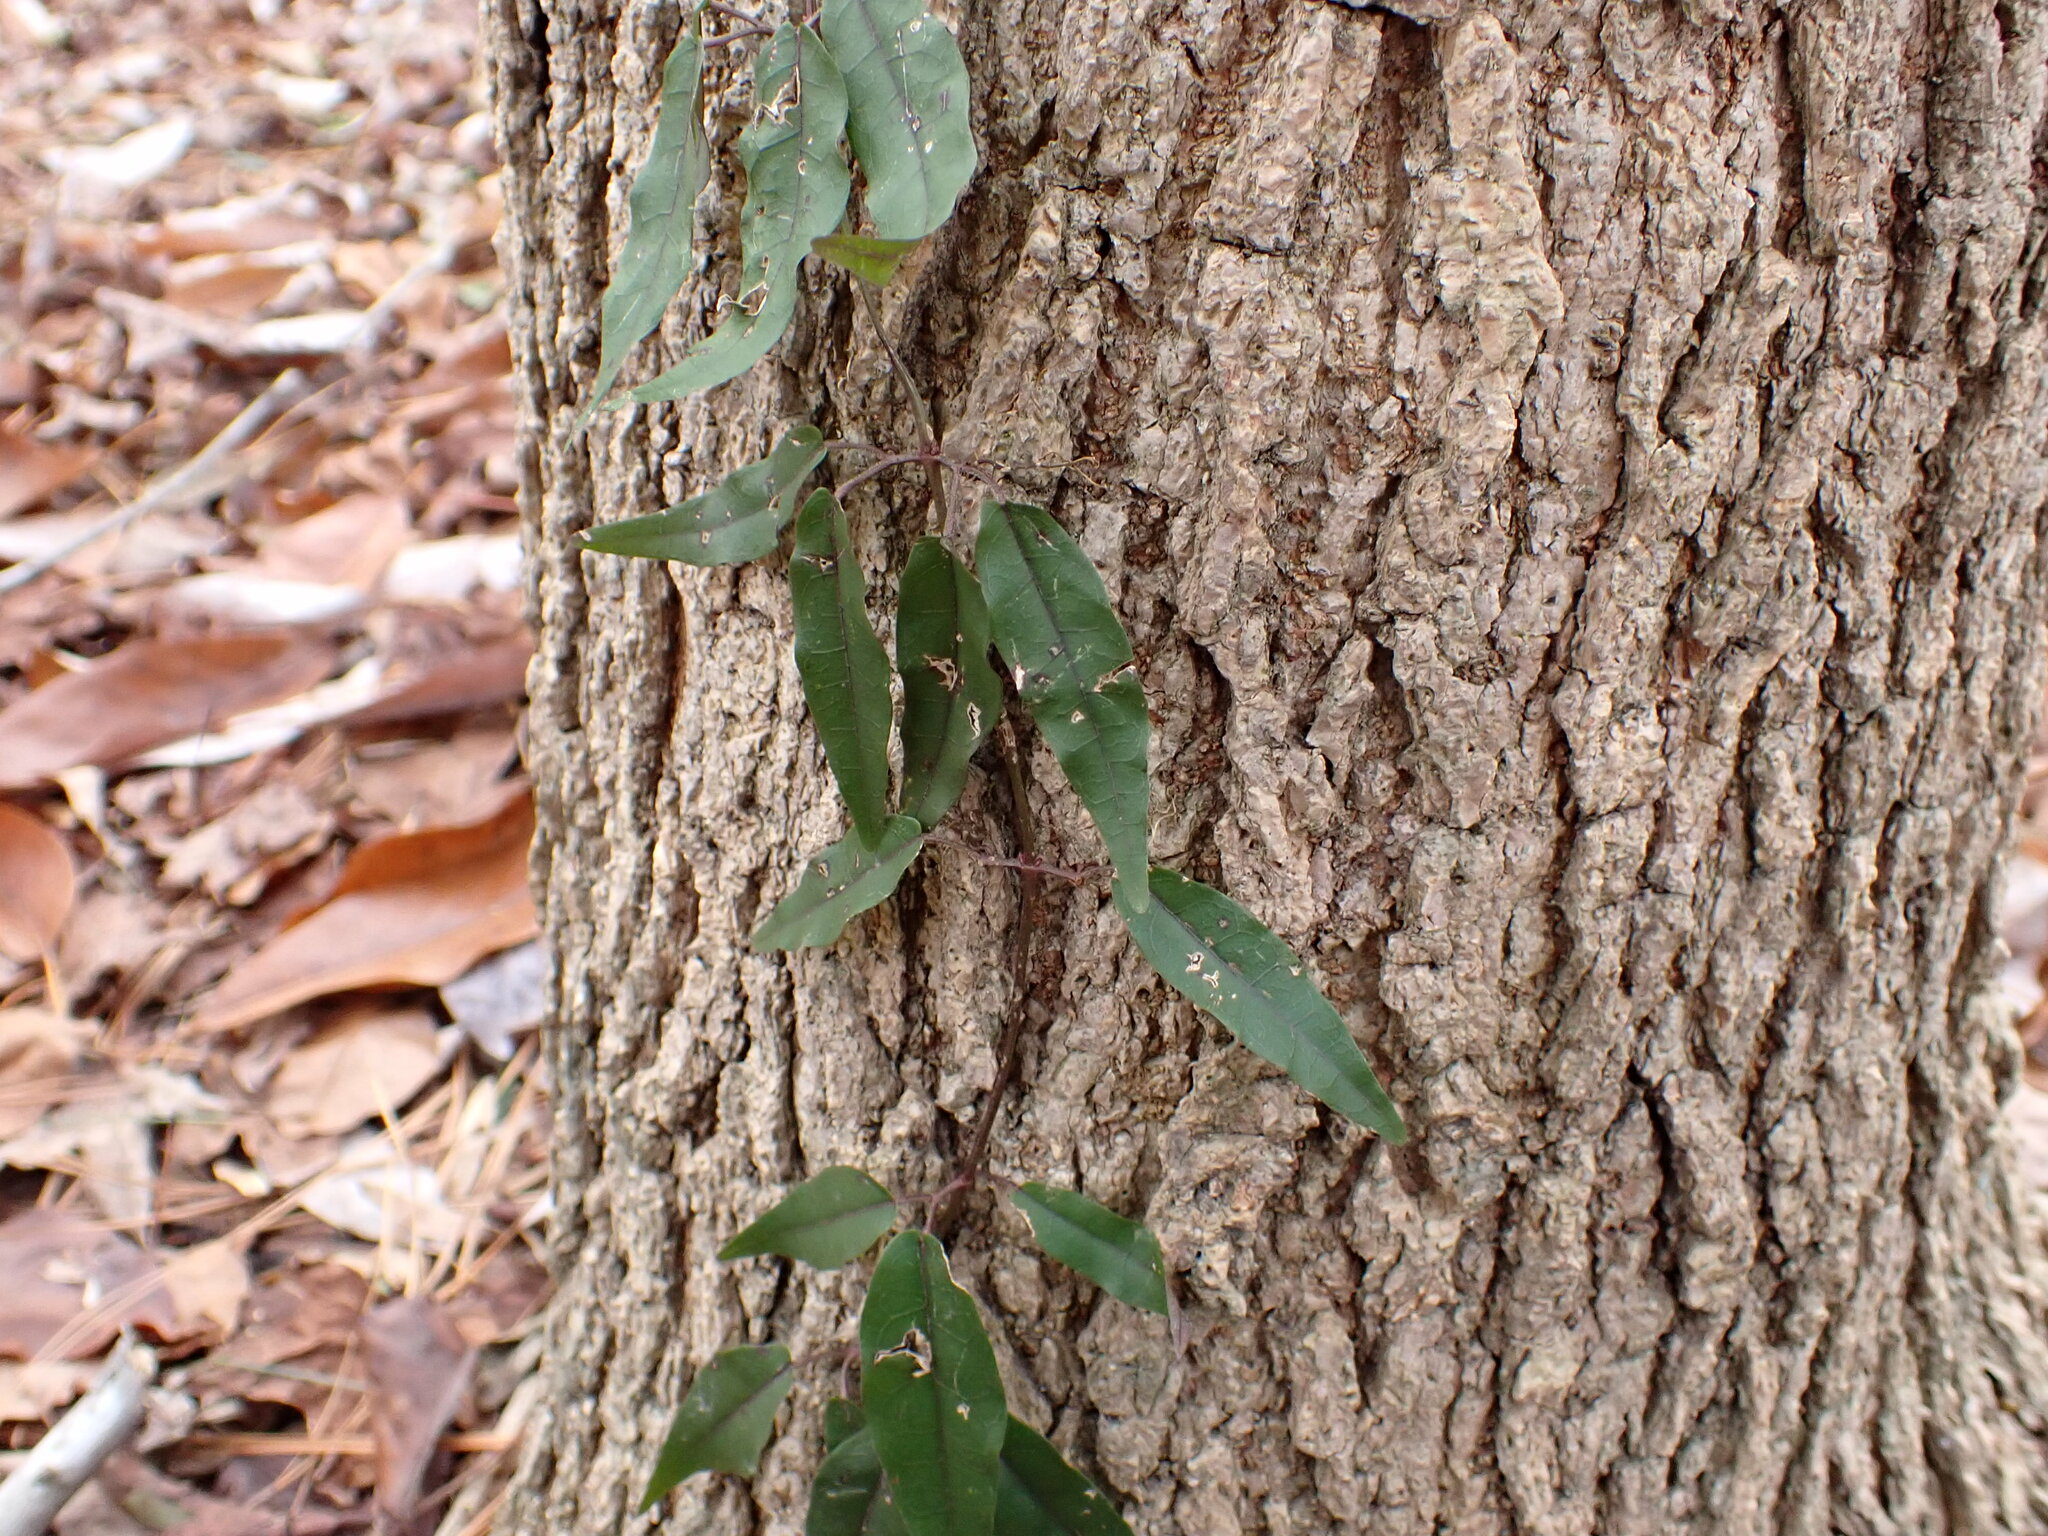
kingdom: Plantae
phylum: Tracheophyta
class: Magnoliopsida
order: Lamiales
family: Bignoniaceae
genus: Bignonia
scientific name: Bignonia capreolata
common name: Crossvine
